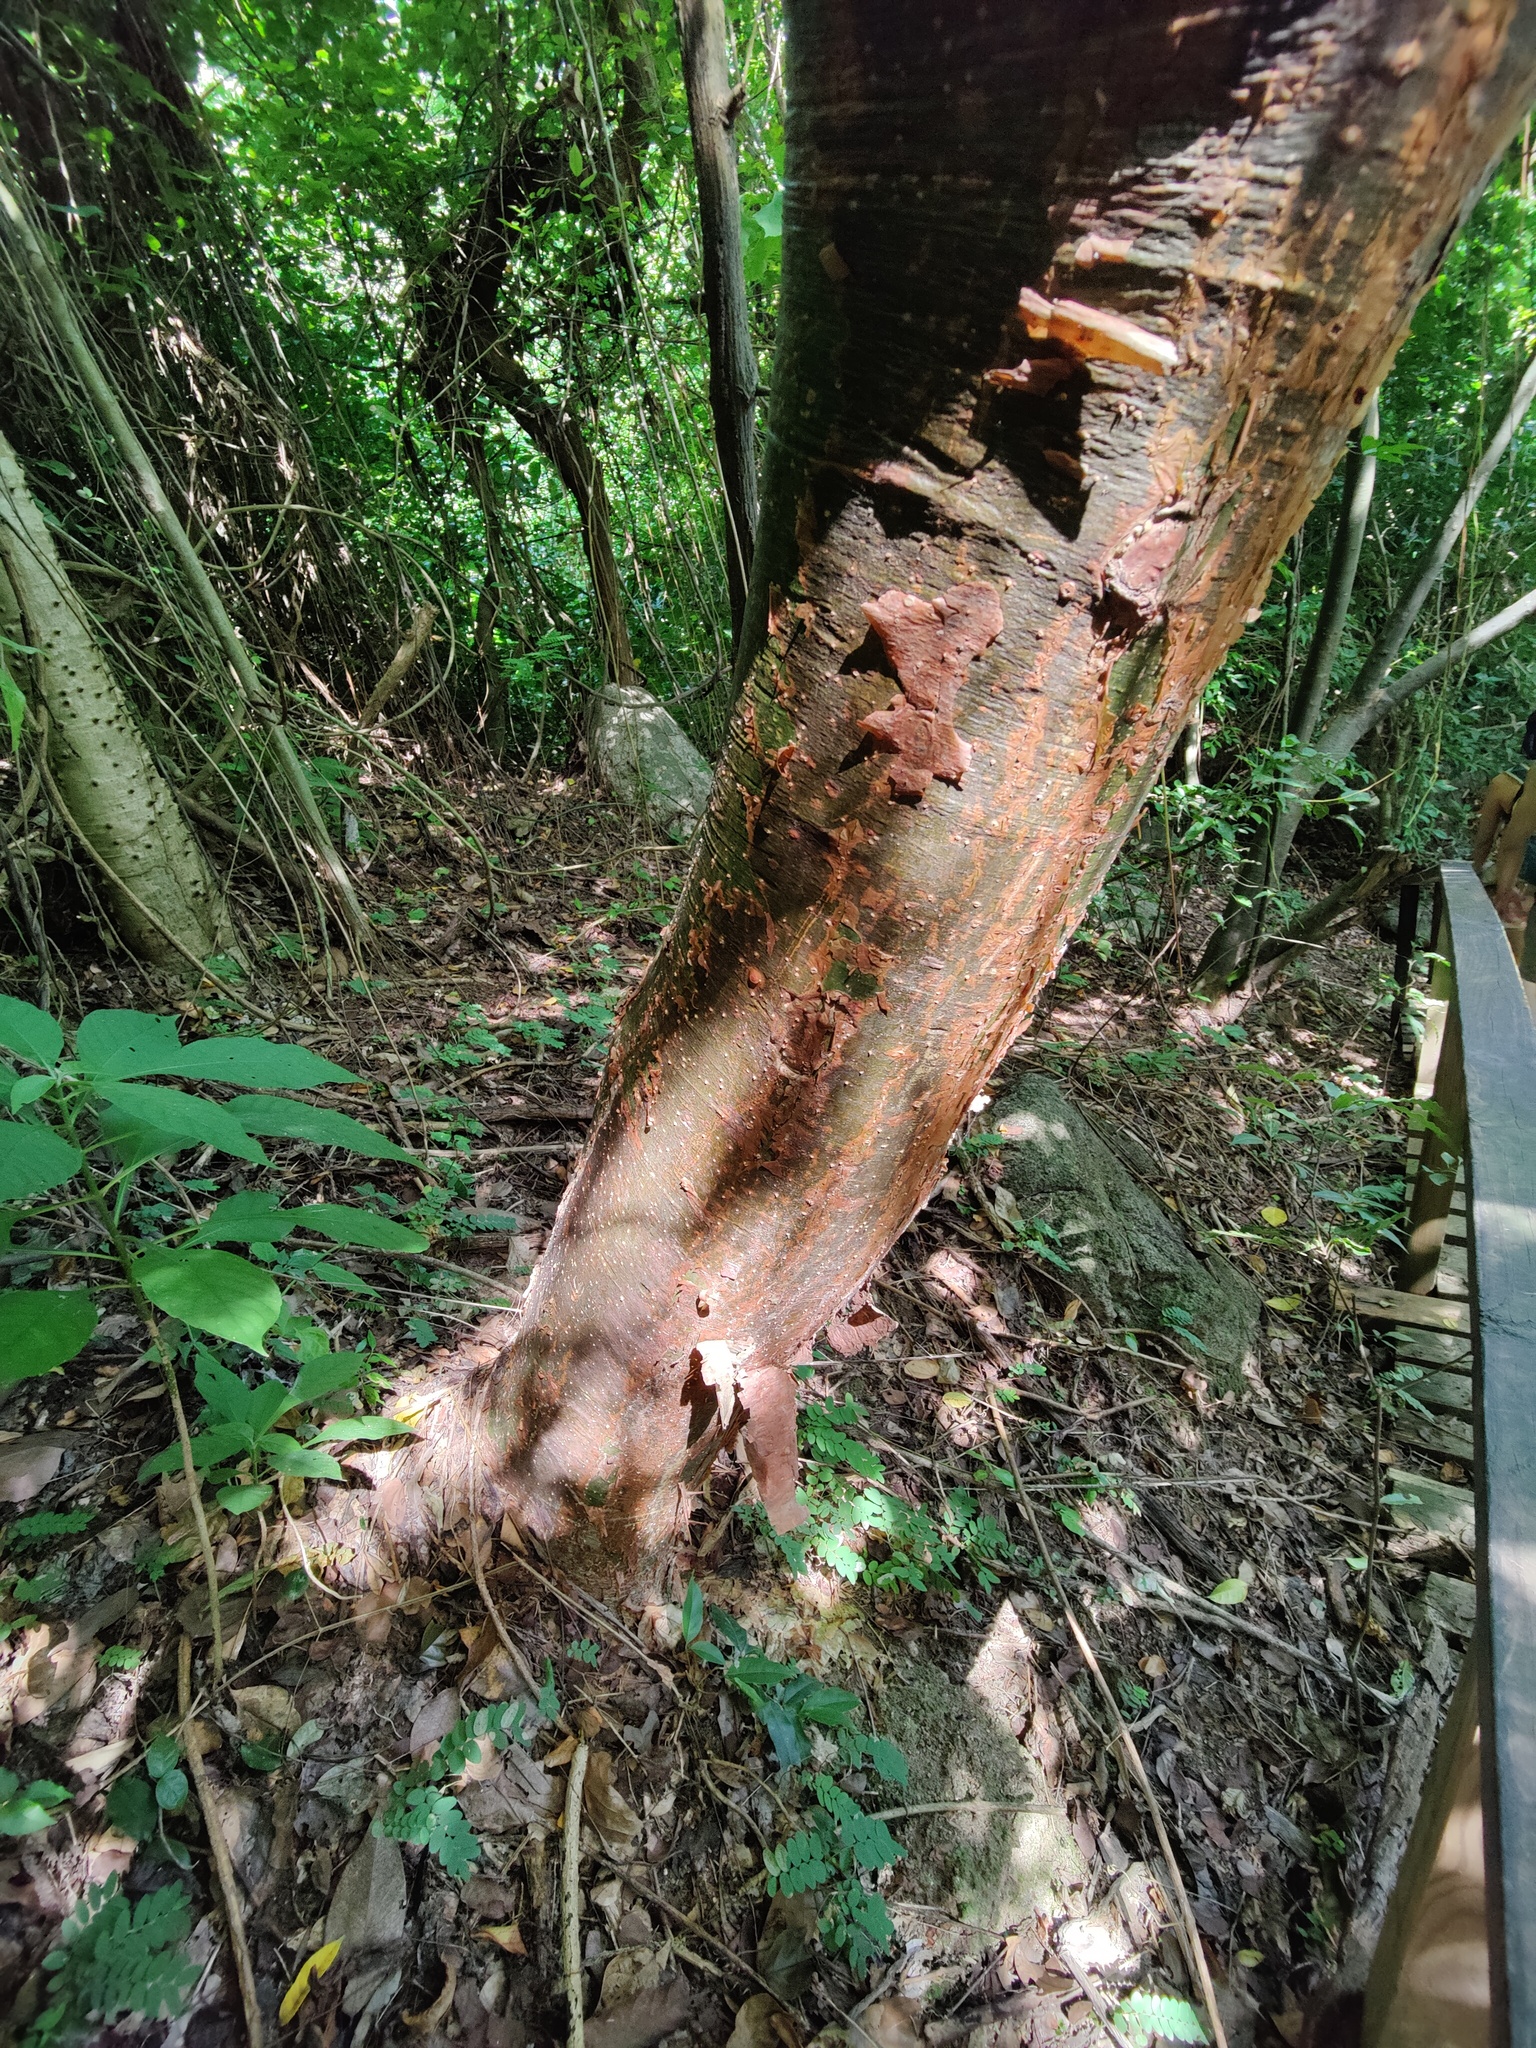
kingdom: Plantae
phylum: Tracheophyta
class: Magnoliopsida
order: Sapindales
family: Burseraceae
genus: Bursera
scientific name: Bursera simaruba
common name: Turpentine tree
